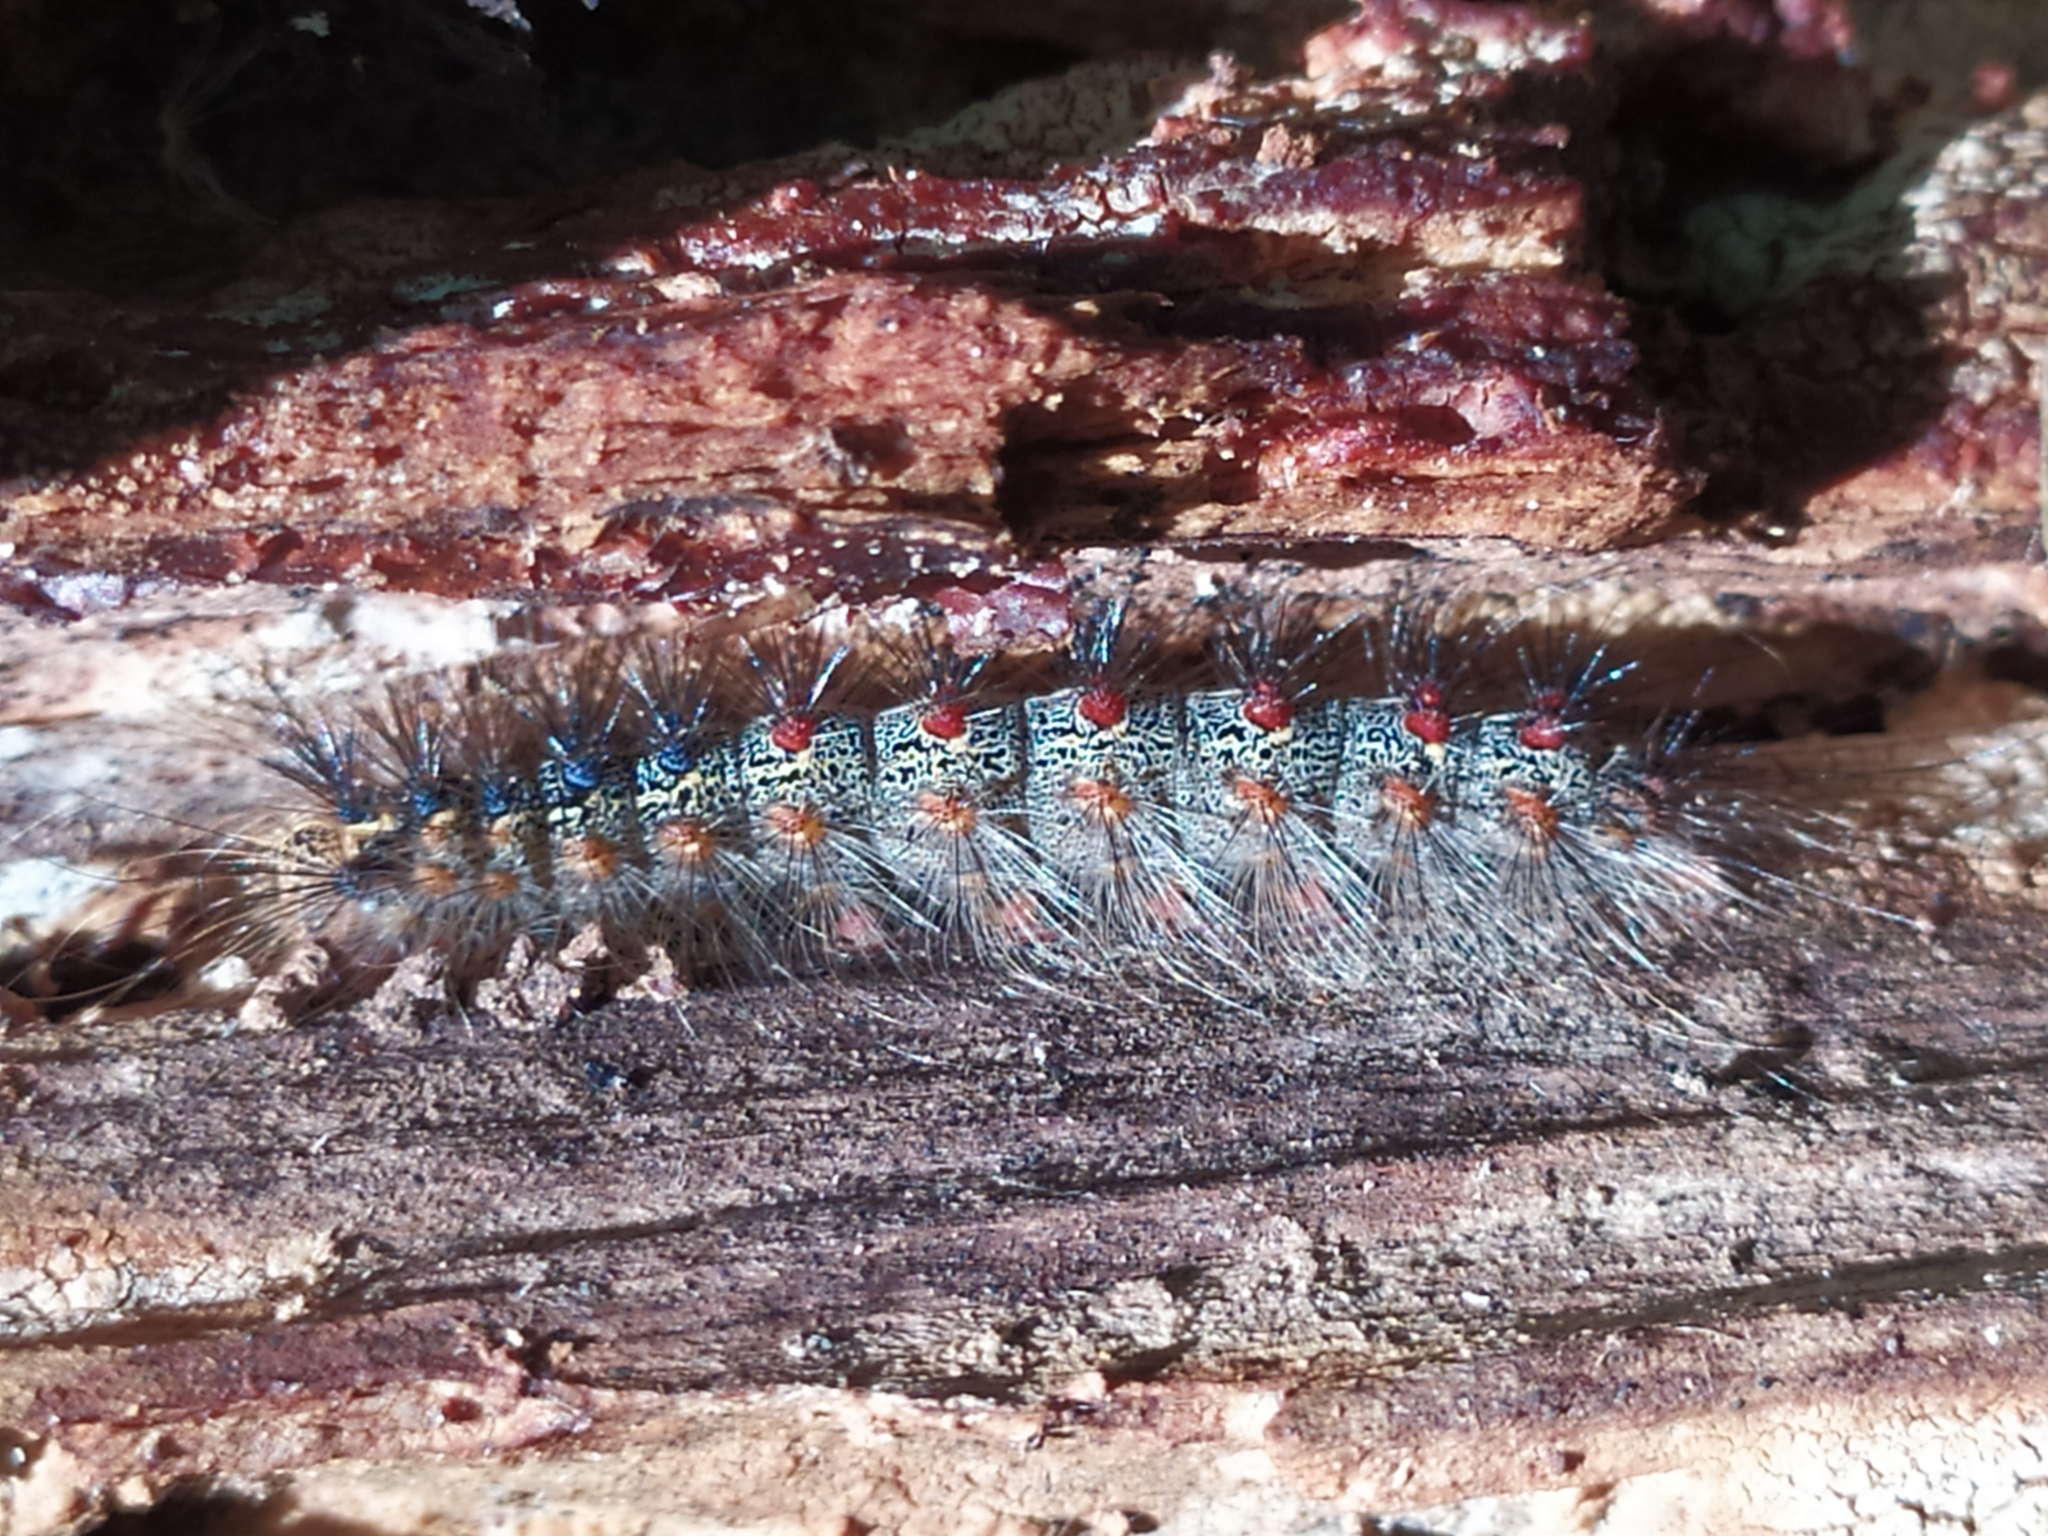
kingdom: Animalia
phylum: Arthropoda
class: Insecta
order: Lepidoptera
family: Erebidae
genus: Lymantria
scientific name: Lymantria dispar
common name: Gypsy moth
